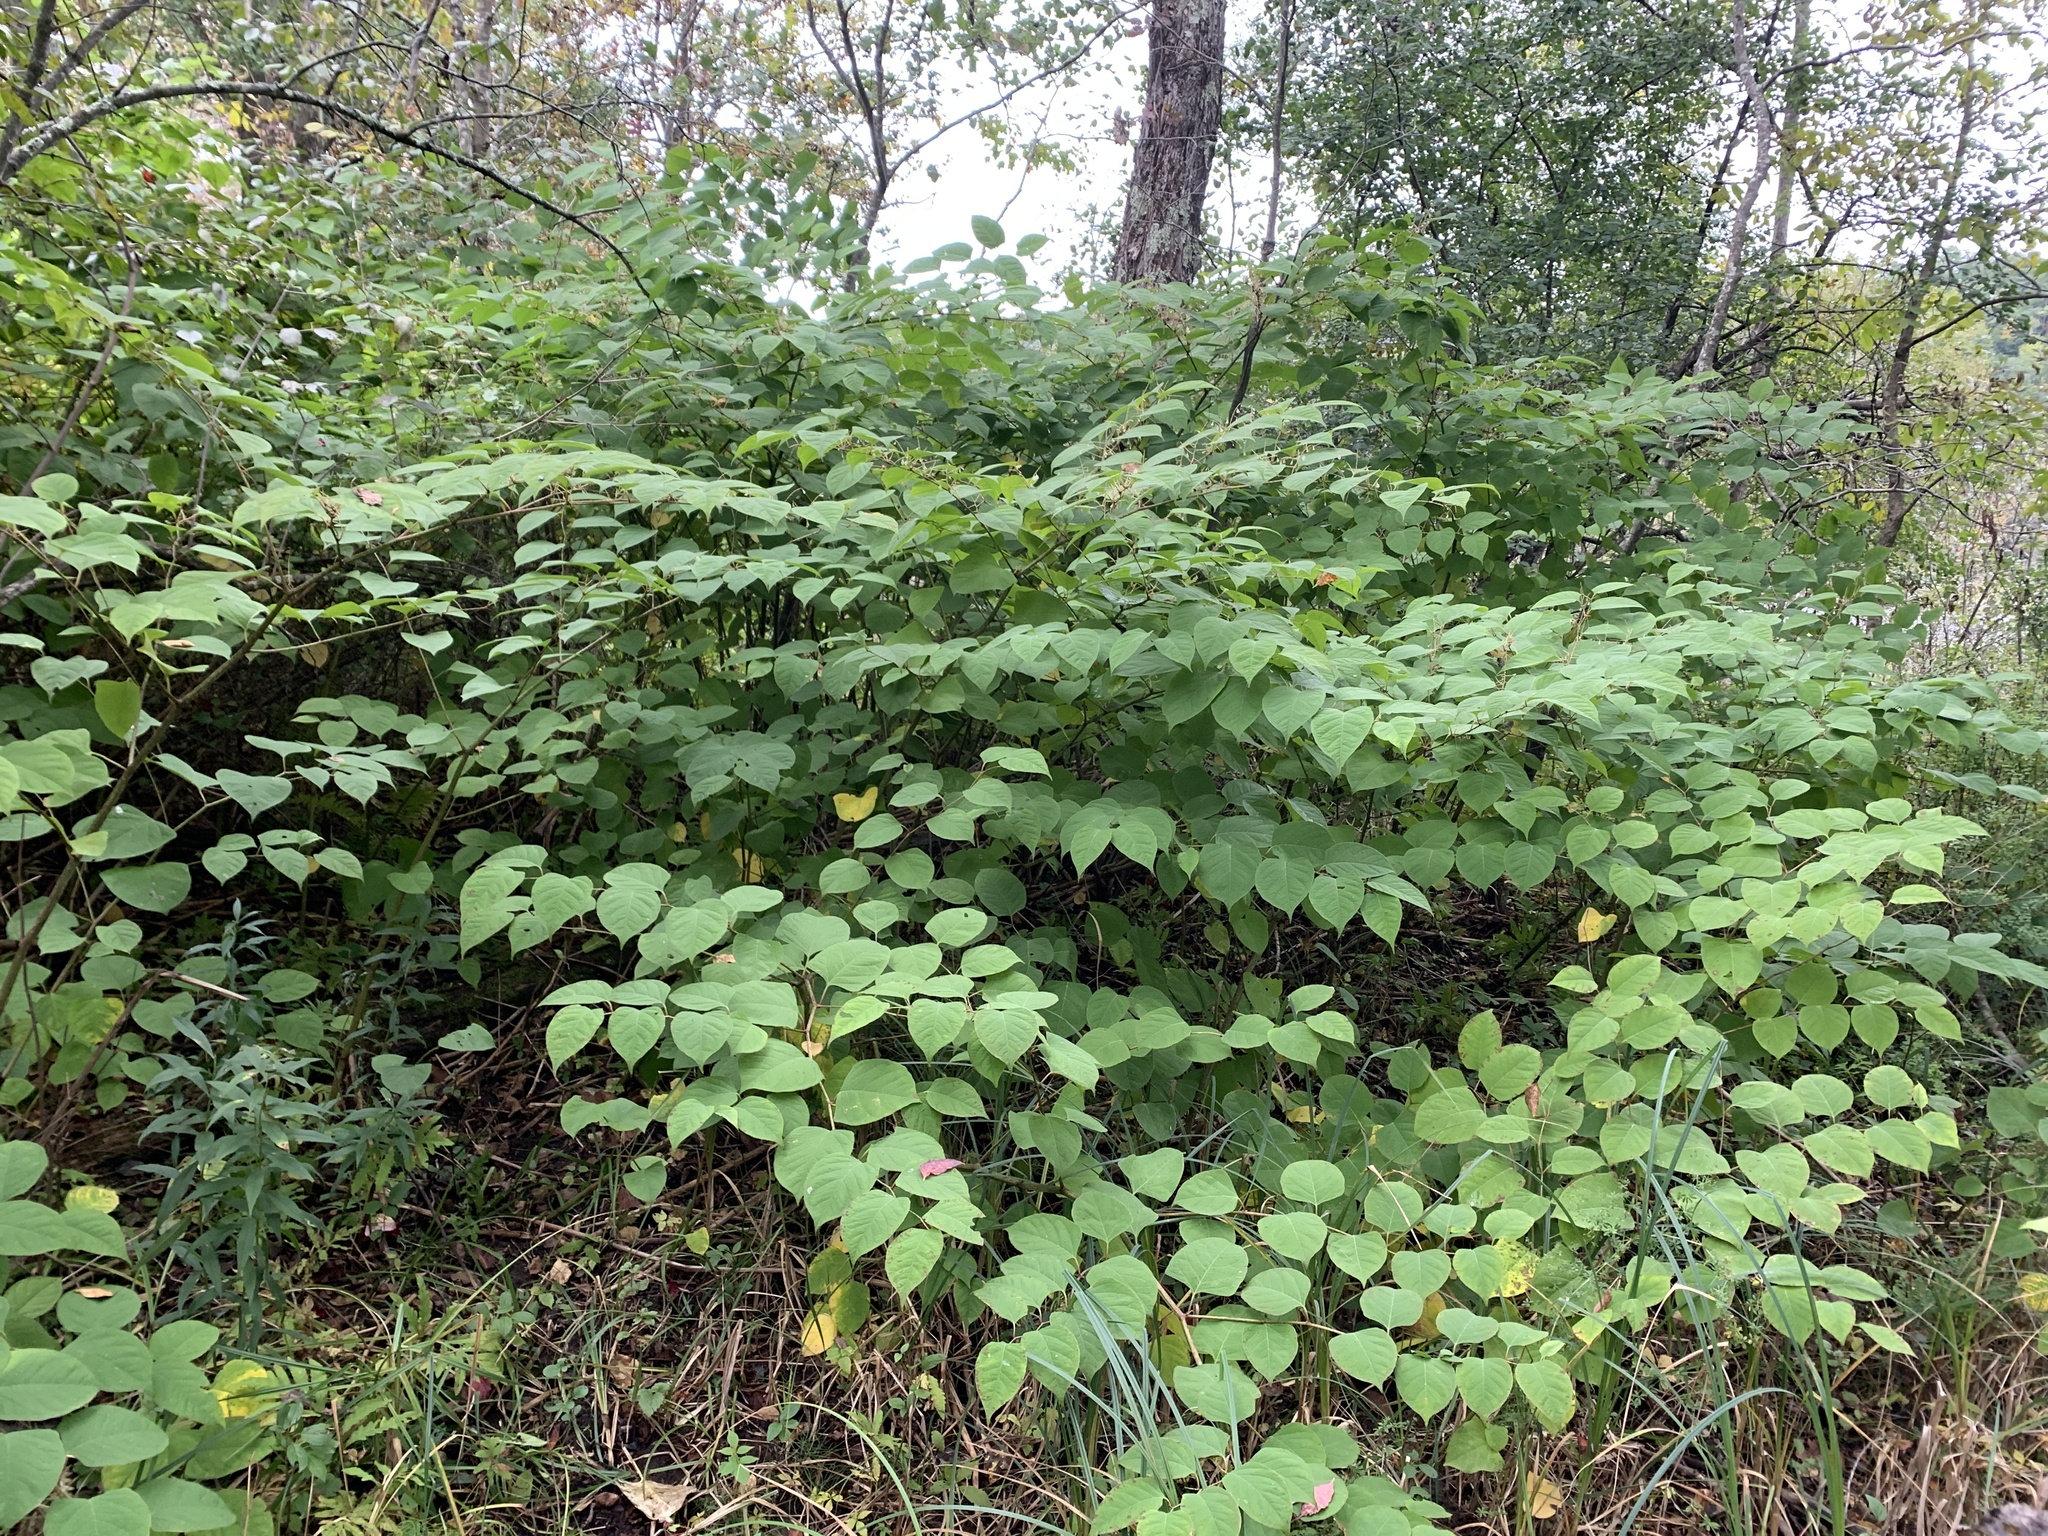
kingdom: Plantae
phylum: Tracheophyta
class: Magnoliopsida
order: Caryophyllales
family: Polygonaceae
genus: Reynoutria
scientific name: Reynoutria japonica
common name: Japanese knotweed
